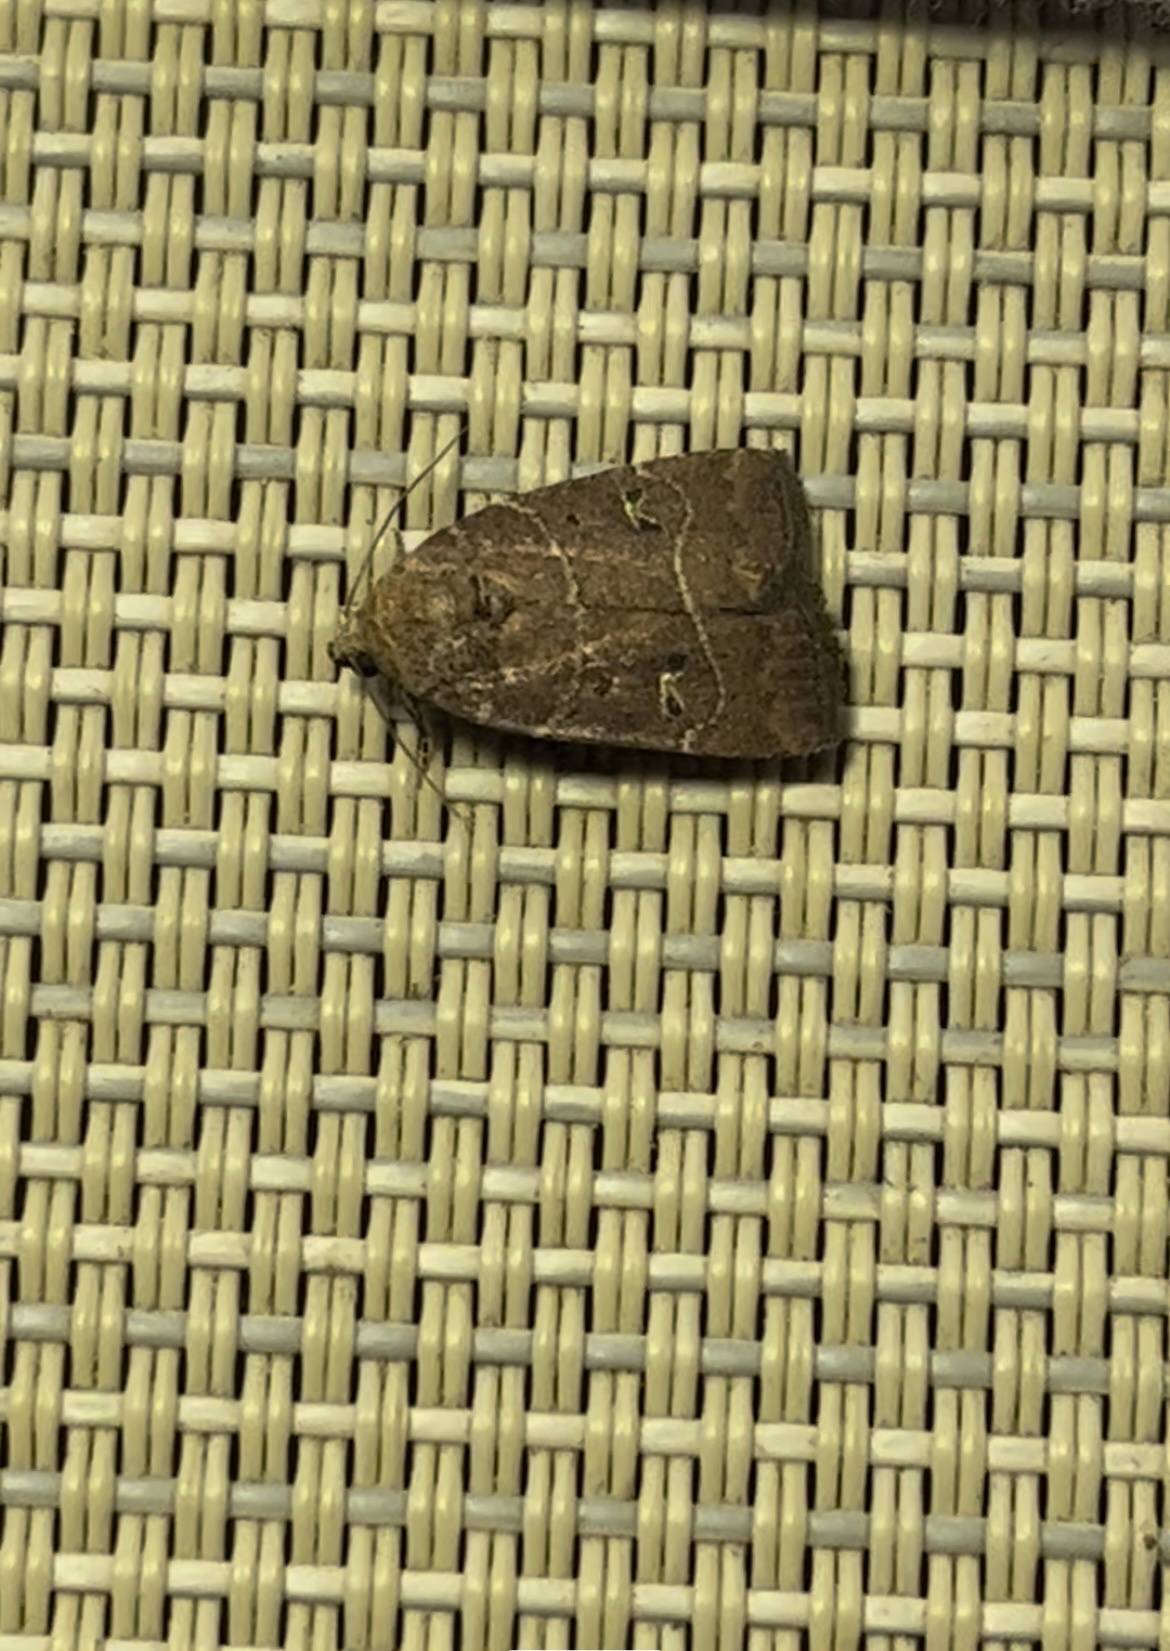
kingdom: Animalia
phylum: Arthropoda
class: Insecta
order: Lepidoptera
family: Noctuidae
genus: Elaphria
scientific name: Elaphria grata
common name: Grateful midget moth
